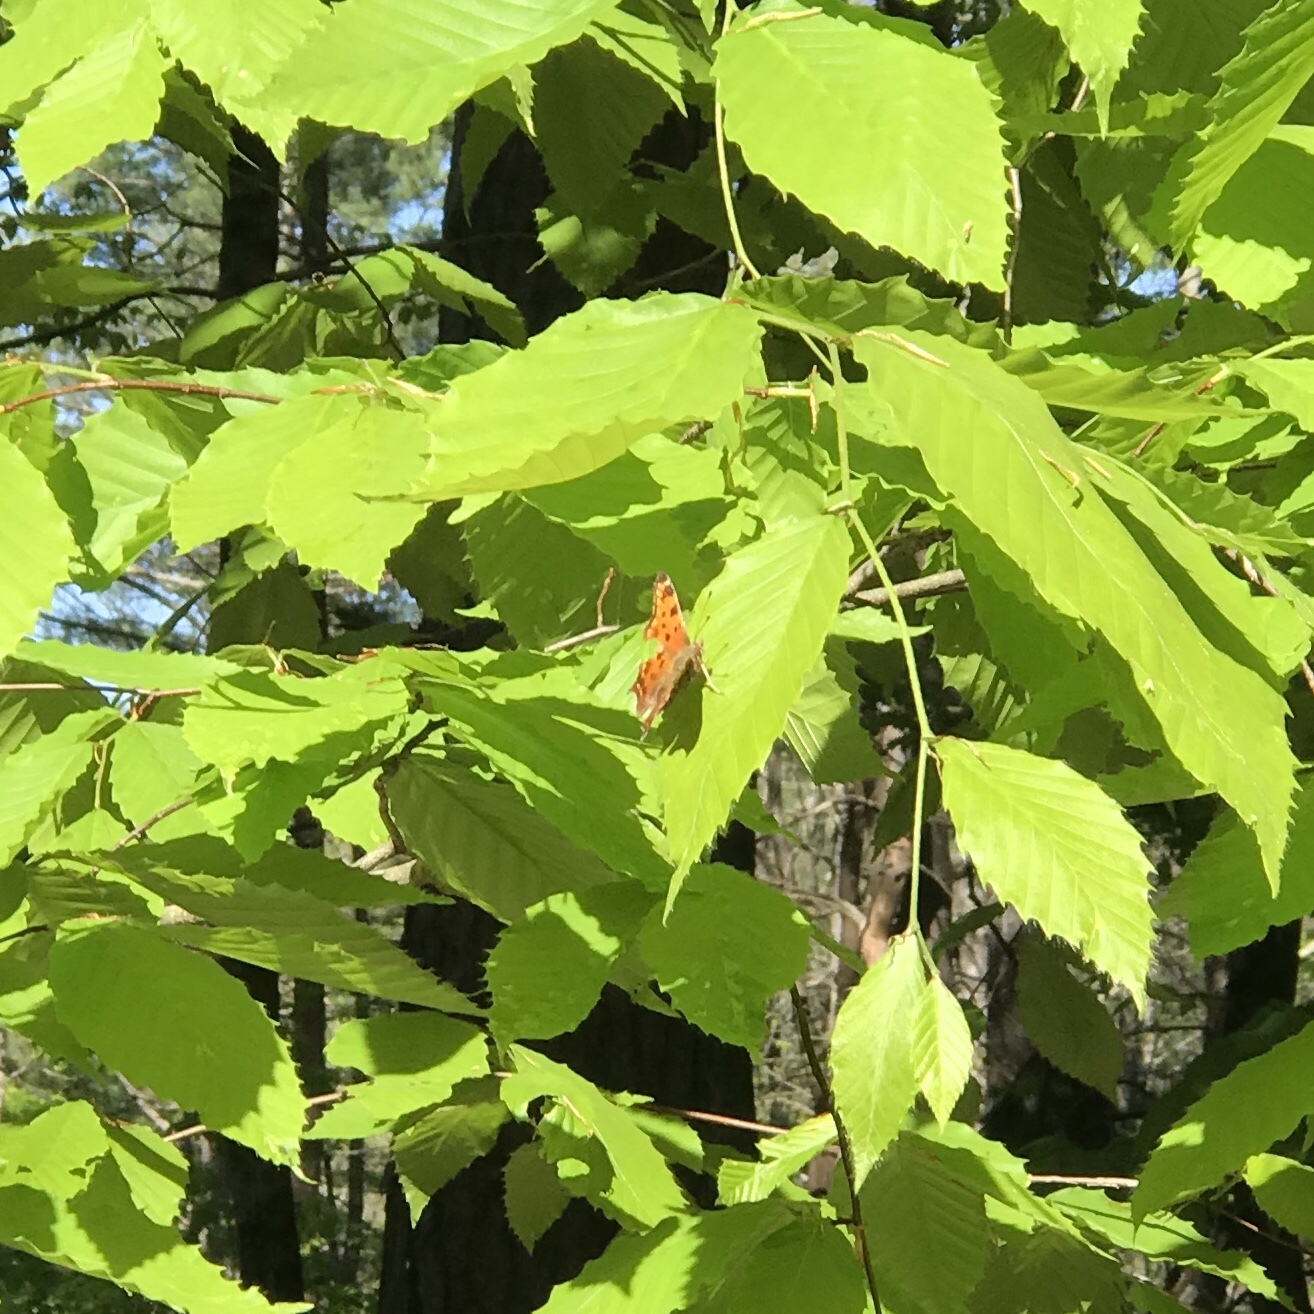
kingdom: Animalia
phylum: Arthropoda
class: Insecta
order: Lepidoptera
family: Nymphalidae
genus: Polygonia
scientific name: Polygonia comma
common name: Eastern comma
